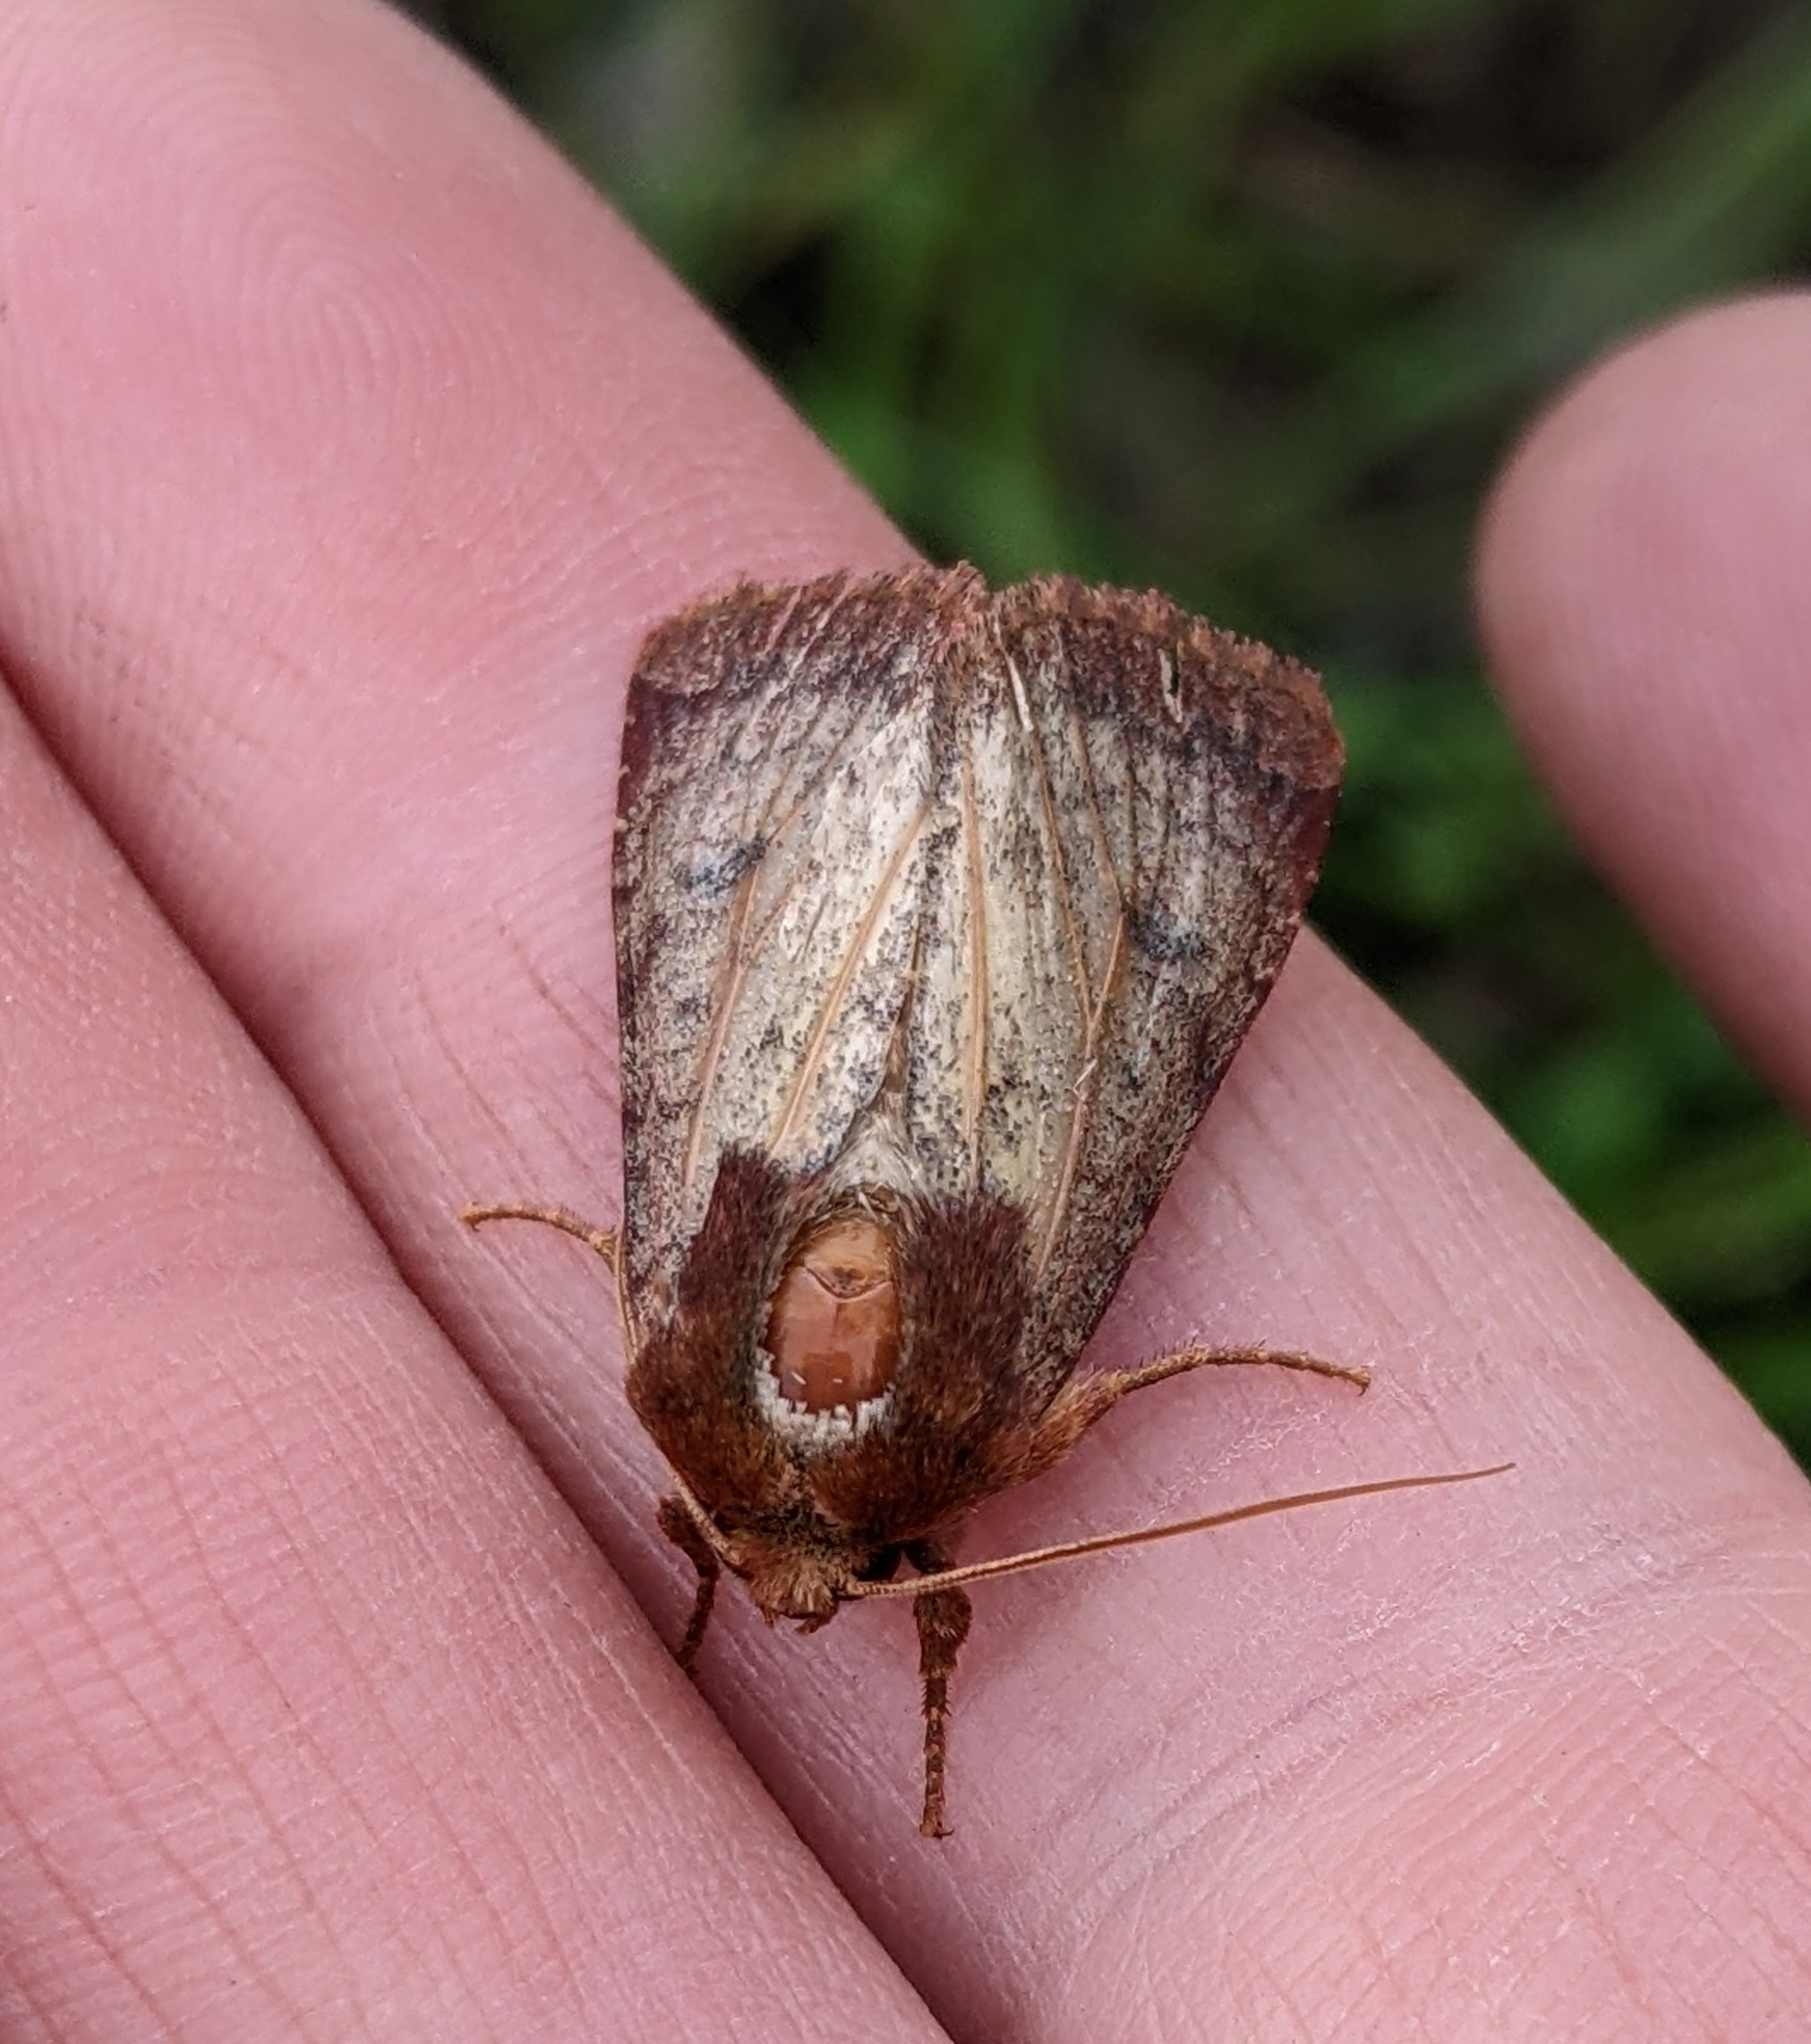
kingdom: Animalia
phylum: Arthropoda
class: Insecta
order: Lepidoptera
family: Noctuidae
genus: Sideridis
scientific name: Sideridis rosea
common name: Rosewing moth
